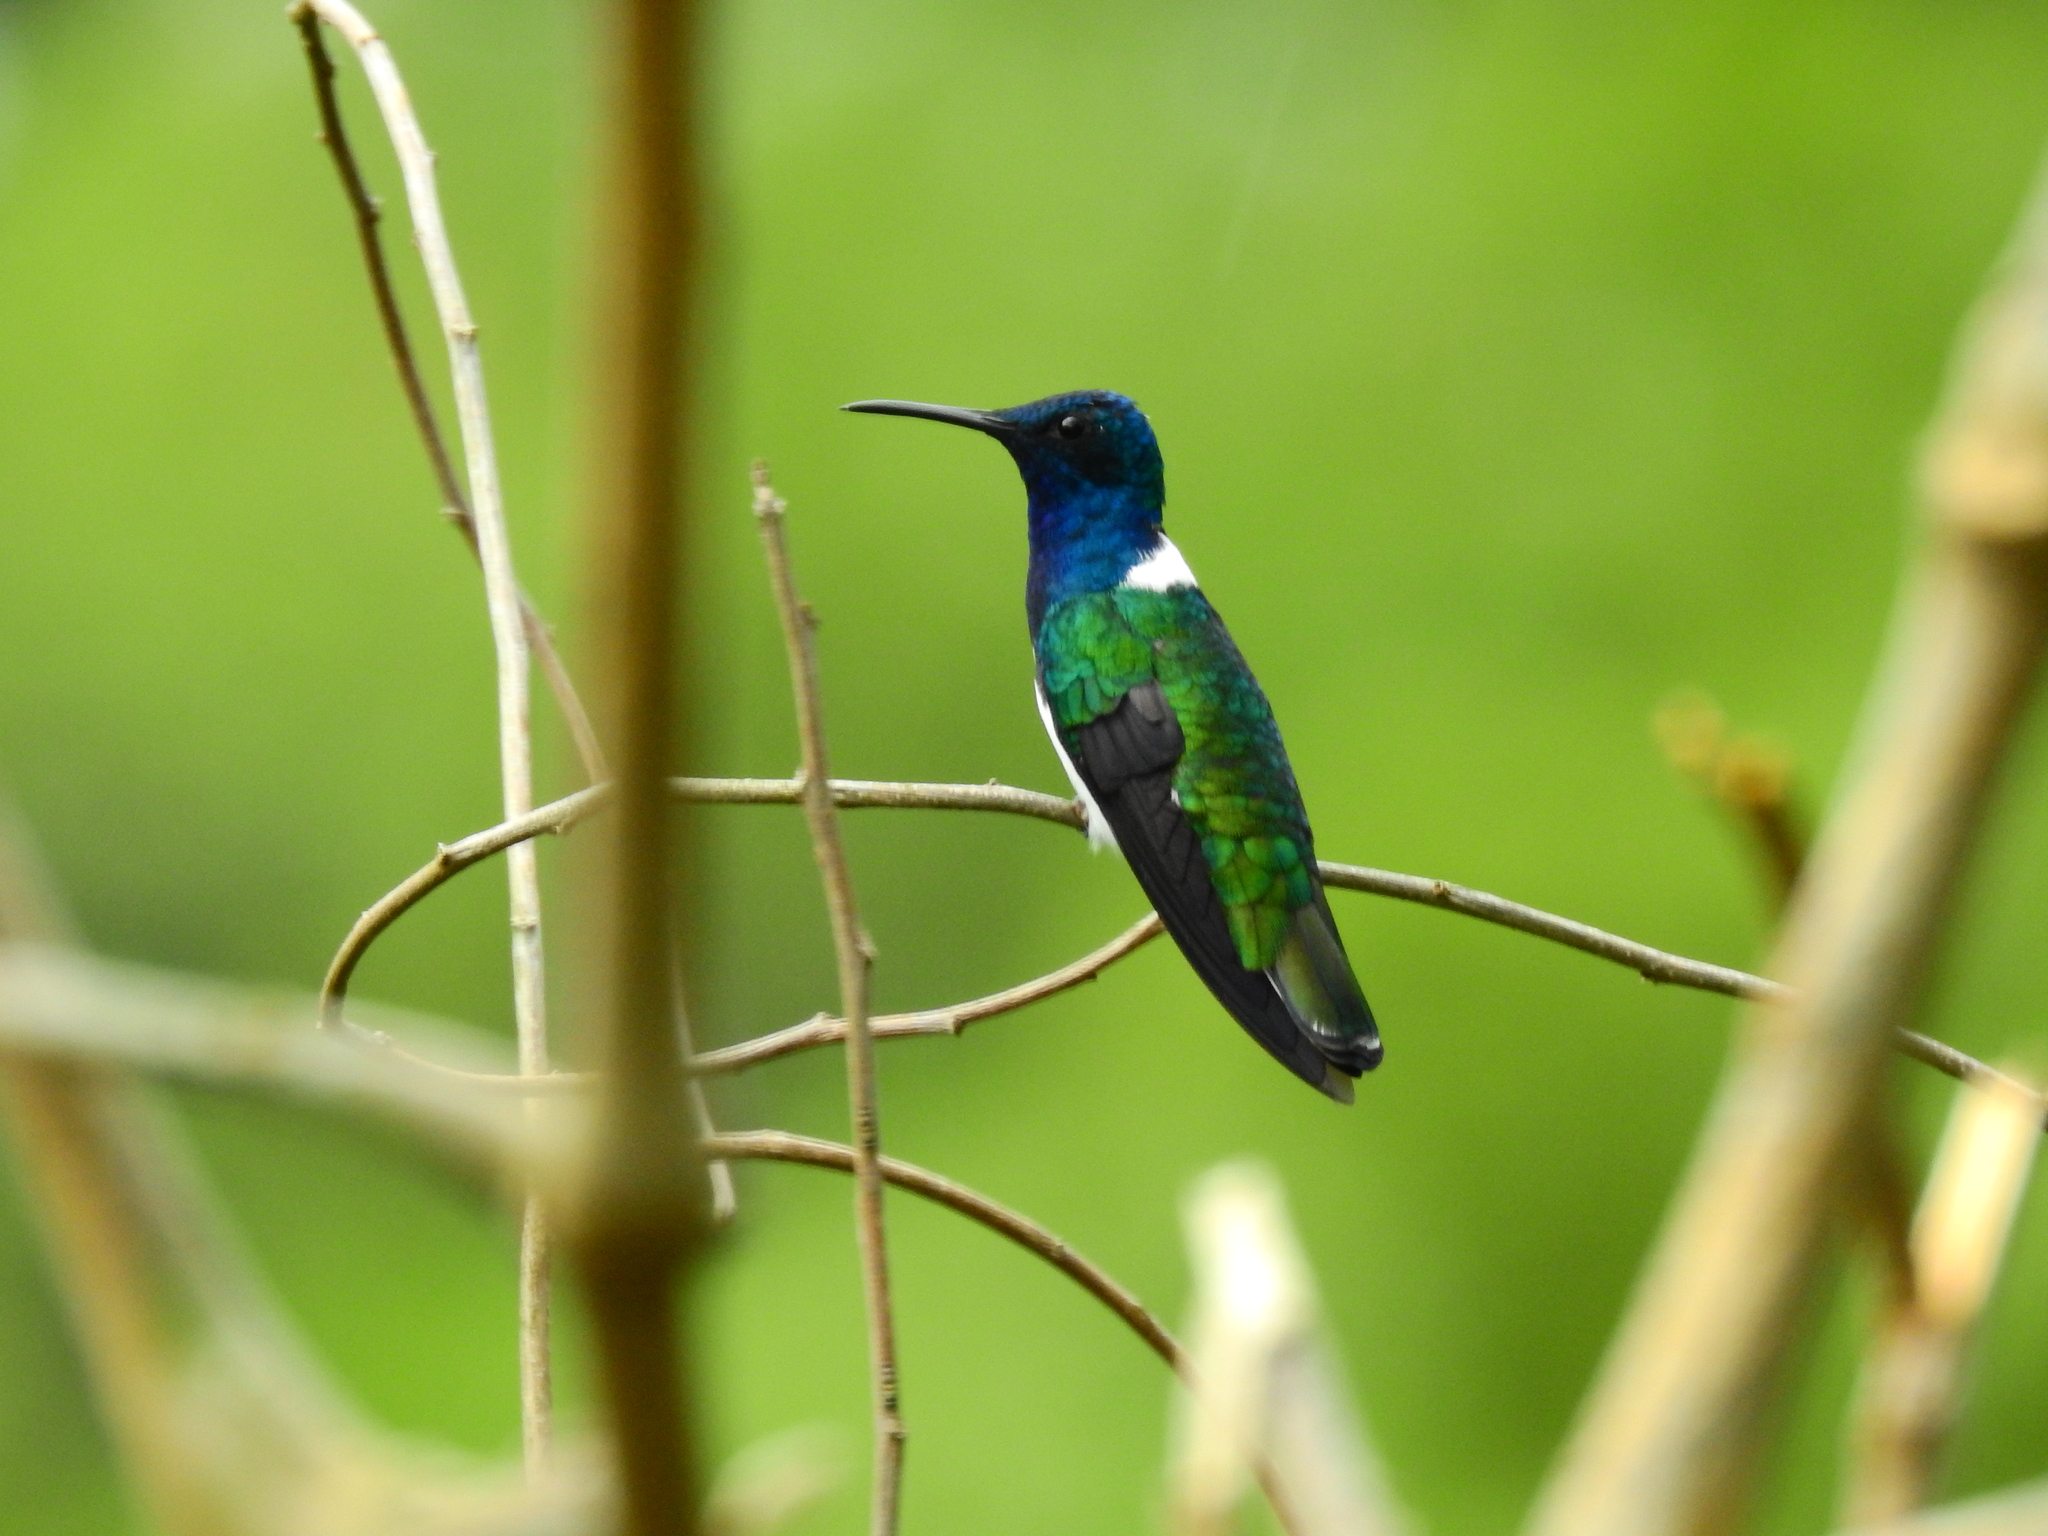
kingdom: Animalia
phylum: Chordata
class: Aves
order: Apodiformes
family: Trochilidae
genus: Florisuga
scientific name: Florisuga mellivora
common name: White-necked jacobin
